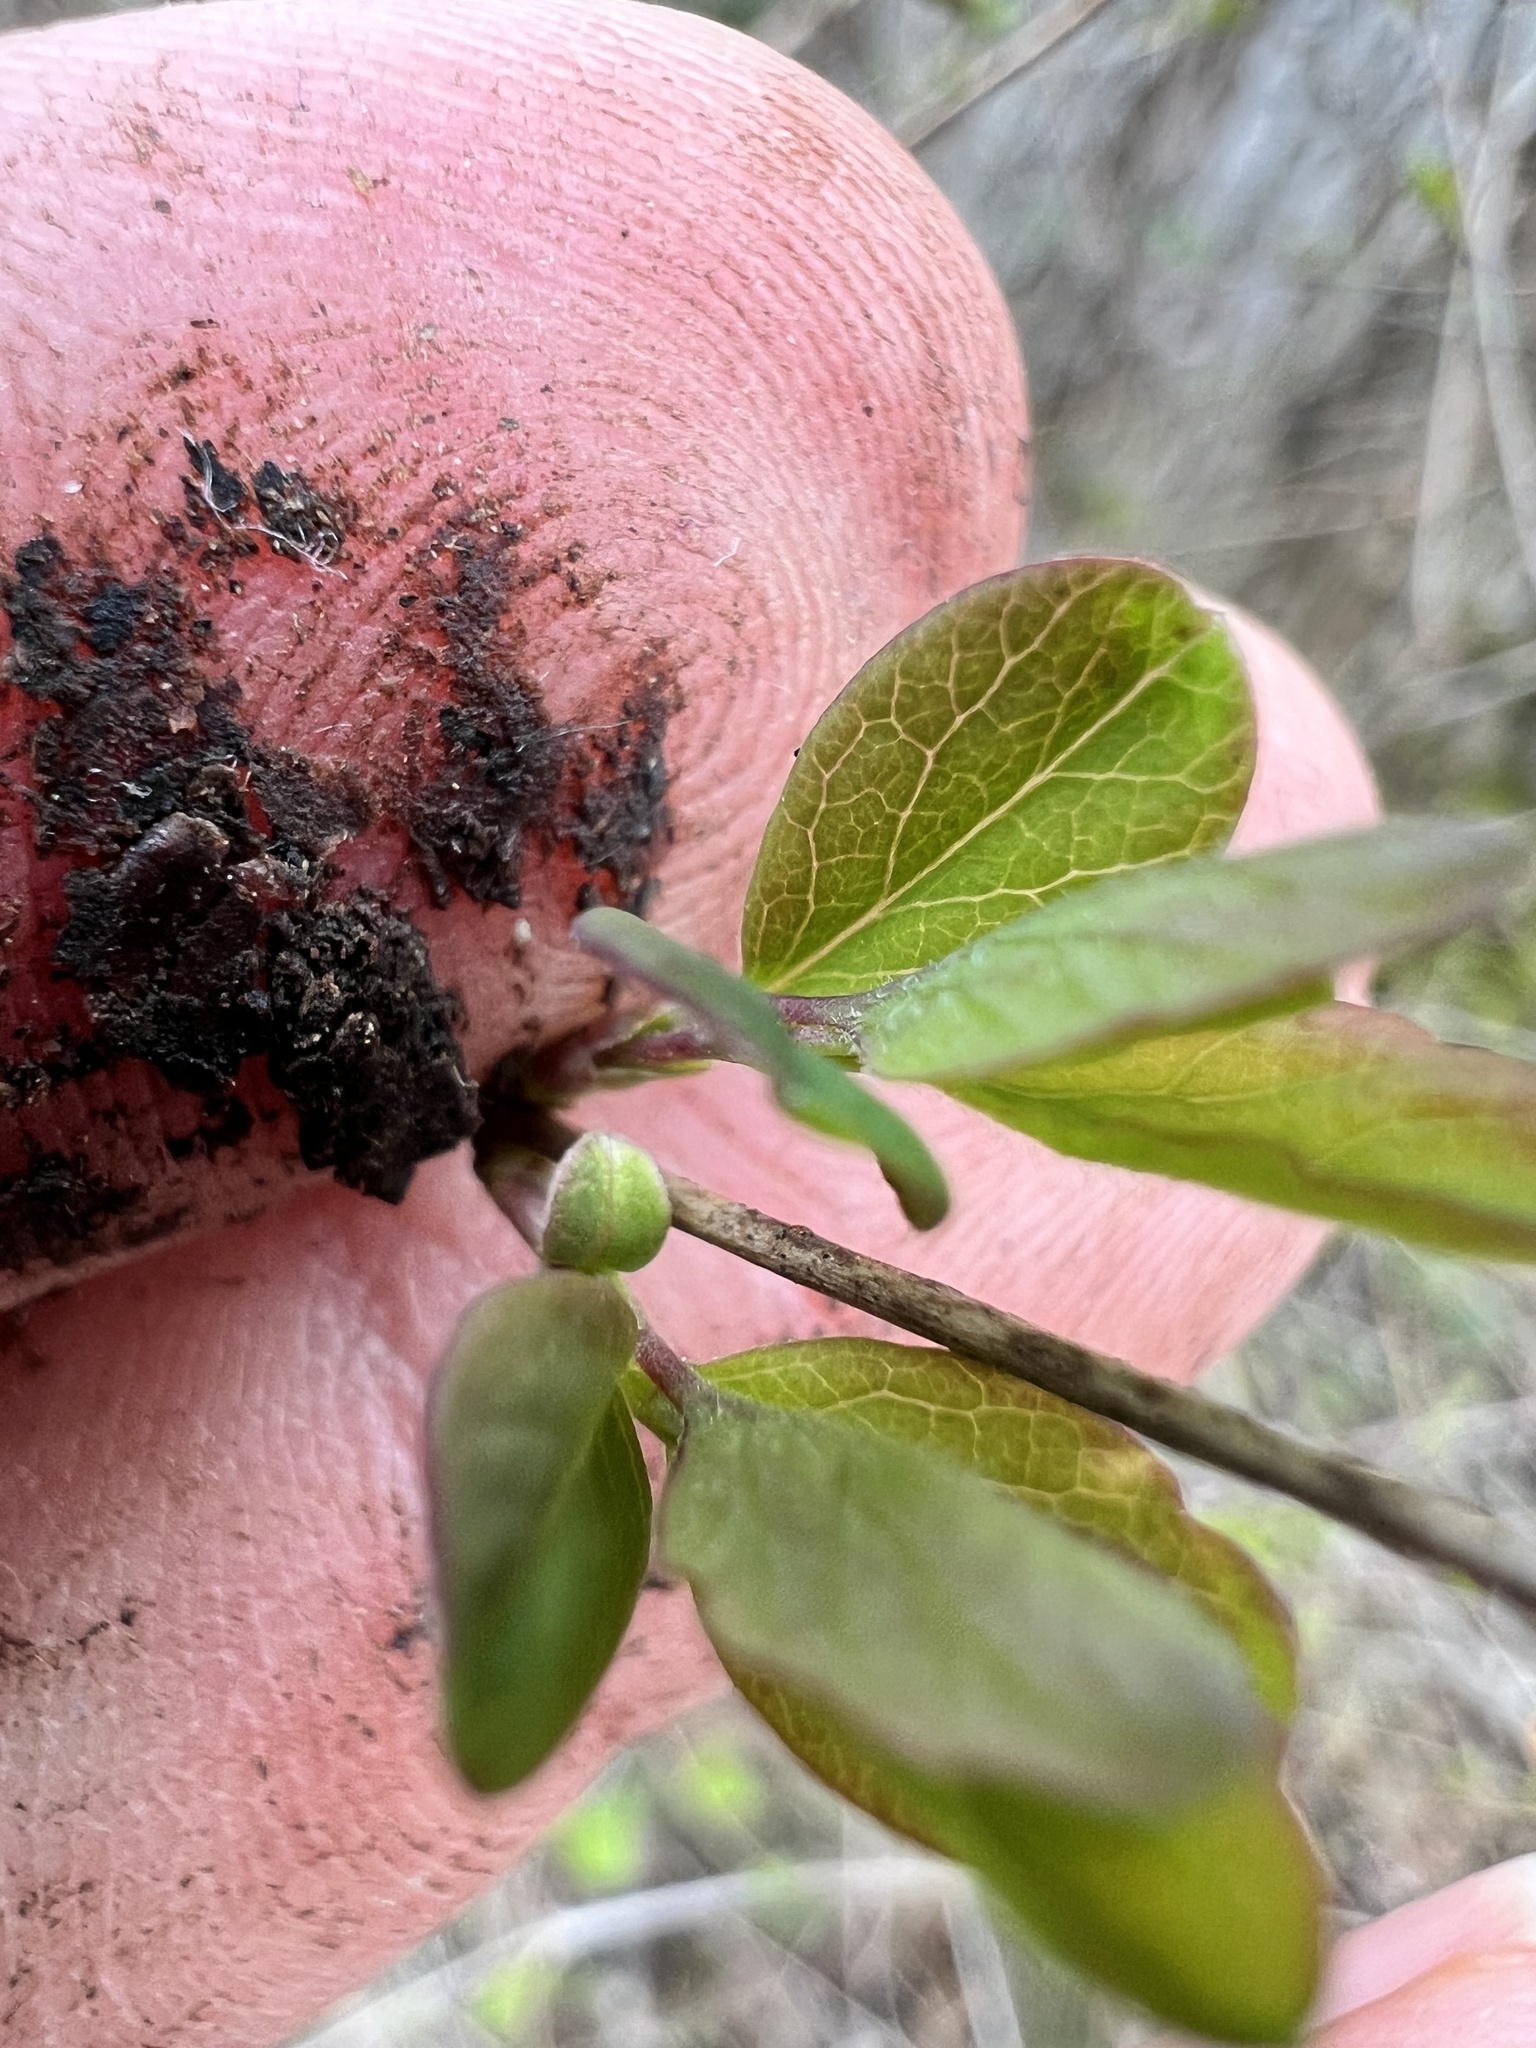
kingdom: Plantae
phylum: Tracheophyta
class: Magnoliopsida
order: Dipsacales
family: Caprifoliaceae
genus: Symphoricarpos
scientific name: Symphoricarpos albus
